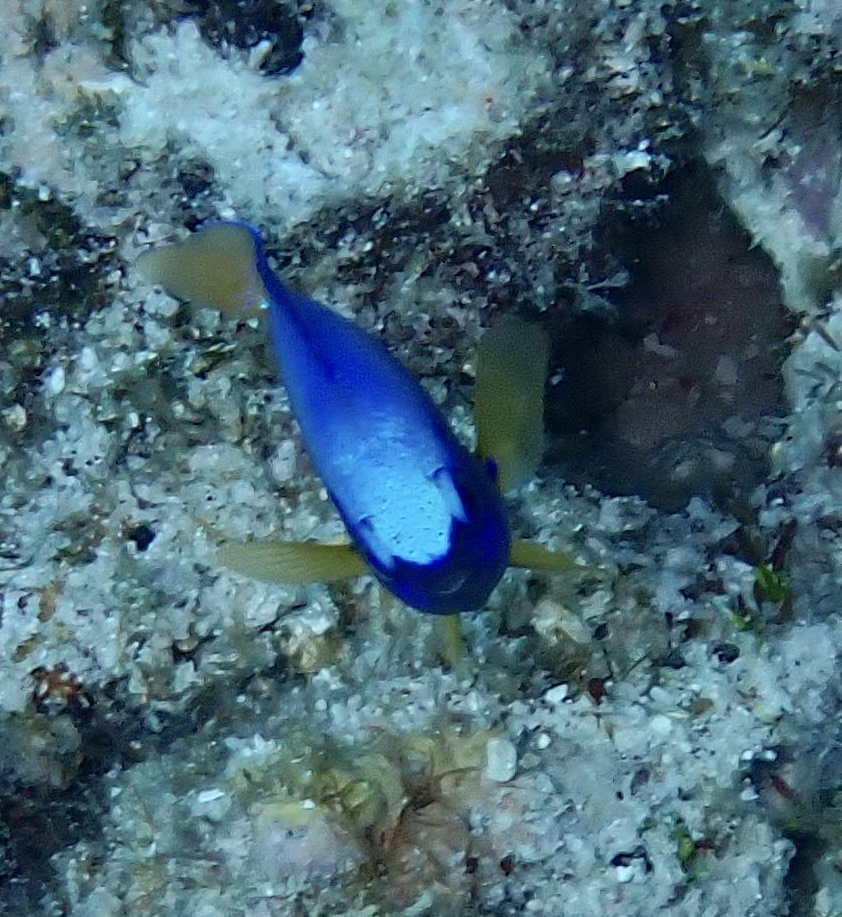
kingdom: Animalia
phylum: Chordata
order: Perciformes
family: Pomacentridae
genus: Pomacentrus
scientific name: Pomacentrus coelestis
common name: Neon damsel
